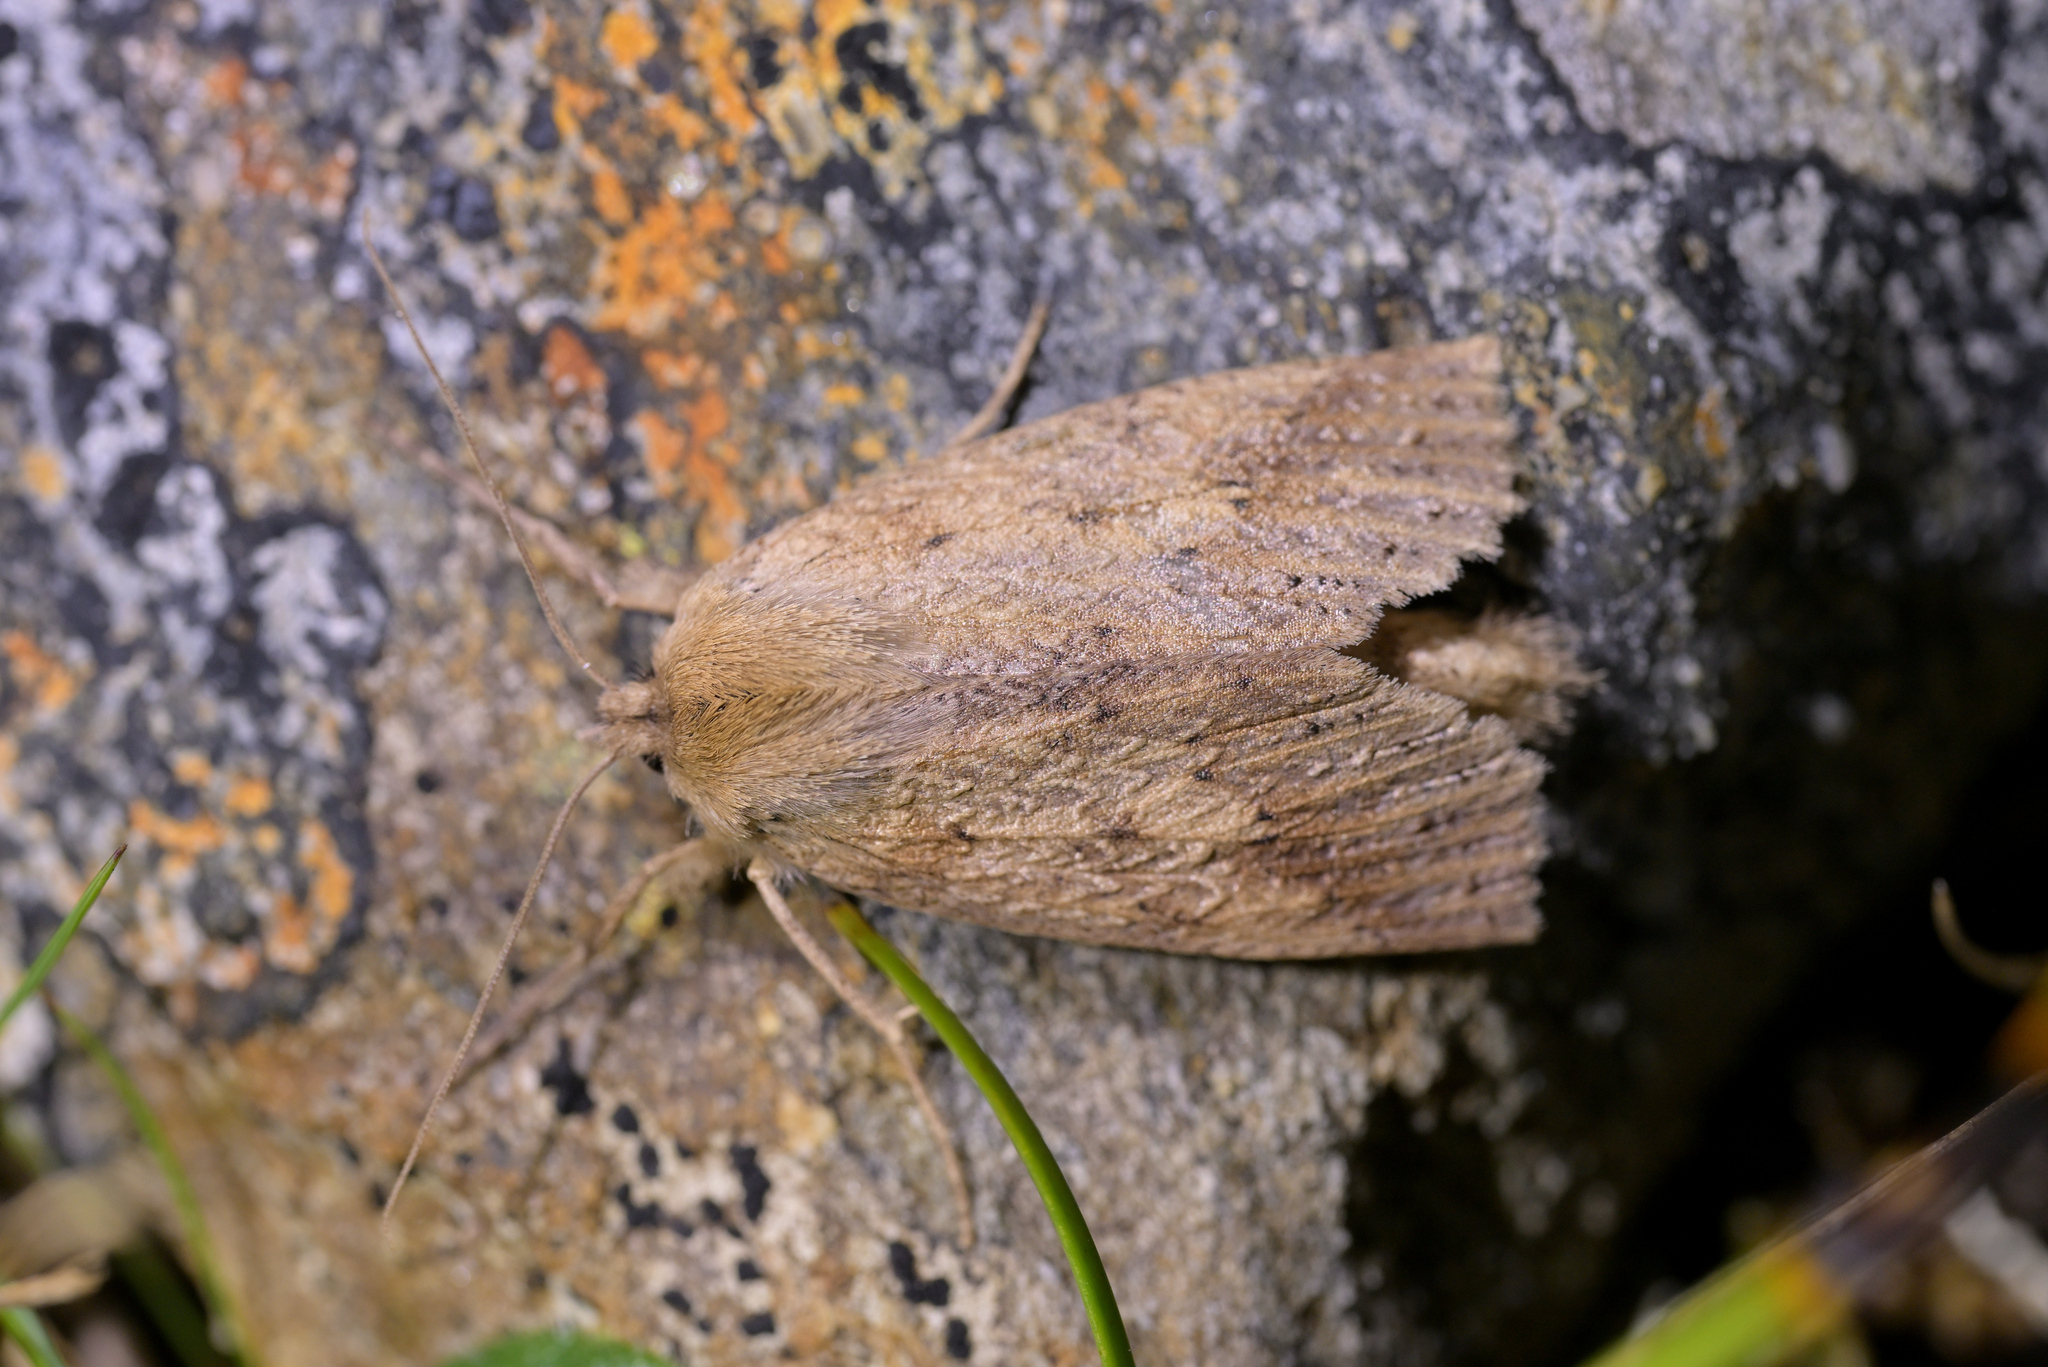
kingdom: Animalia
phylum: Arthropoda
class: Insecta
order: Lepidoptera
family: Geometridae
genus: Declana
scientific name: Declana leptomera
